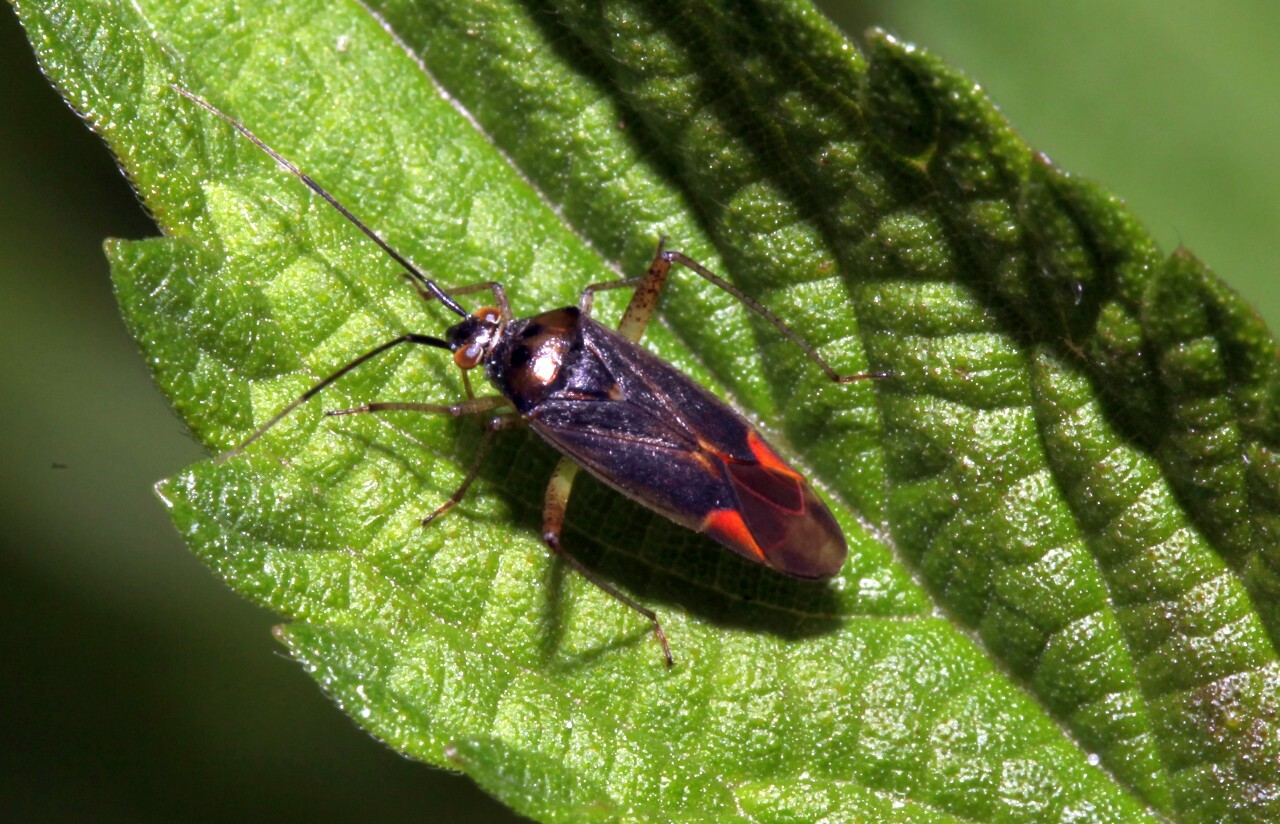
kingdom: Animalia
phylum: Arthropoda
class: Insecta
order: Hemiptera
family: Miridae
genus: Closterotomus
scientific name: Closterotomus trivialis
